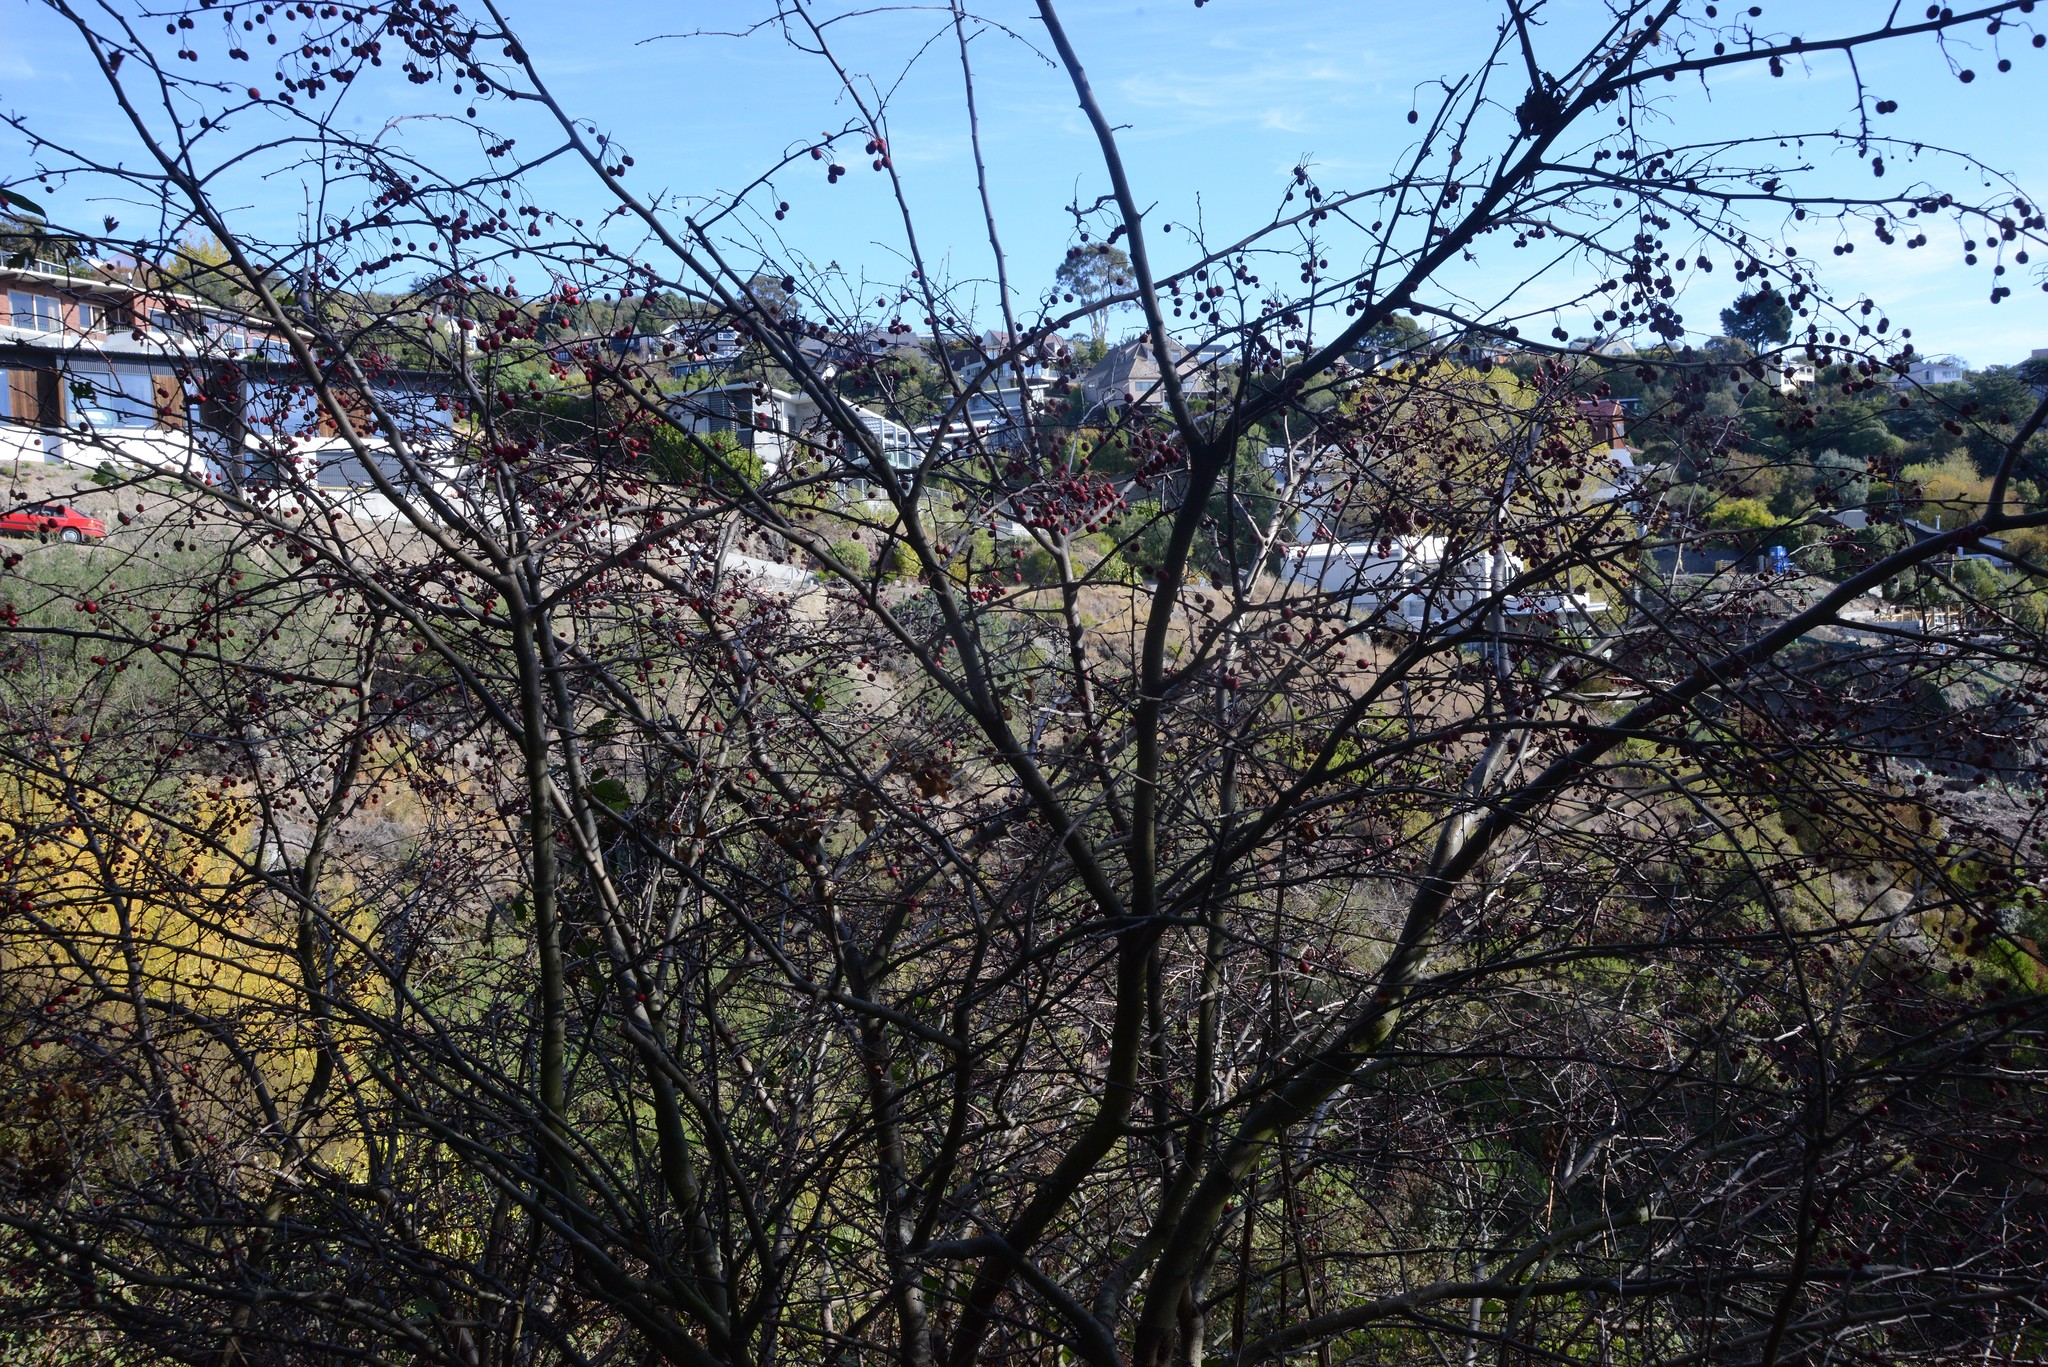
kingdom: Plantae
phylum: Tracheophyta
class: Magnoliopsida
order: Rosales
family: Rosaceae
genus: Crataegus
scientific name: Crataegus monogyna
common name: Hawthorn
